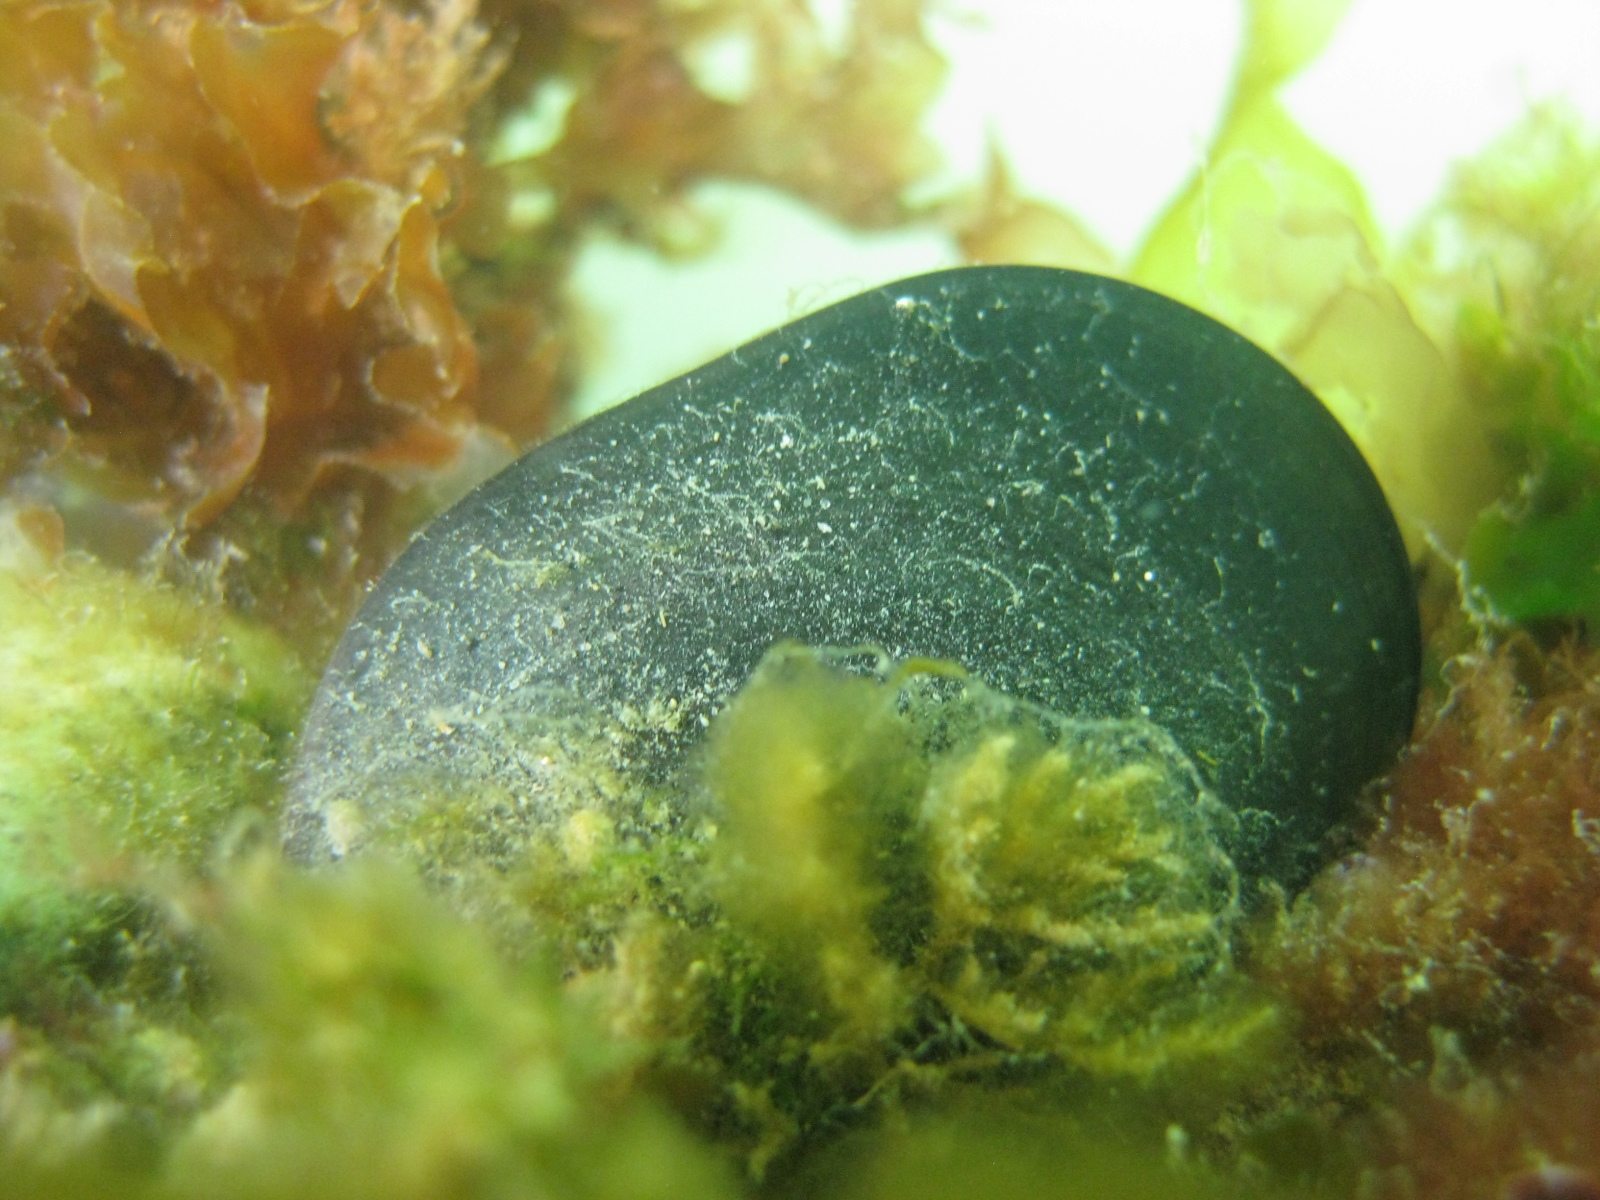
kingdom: Animalia
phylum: Mollusca
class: Bivalvia
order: Mytilida
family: Mytilidae
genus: Mytilus
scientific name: Mytilus planulatus
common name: Australian mussel
